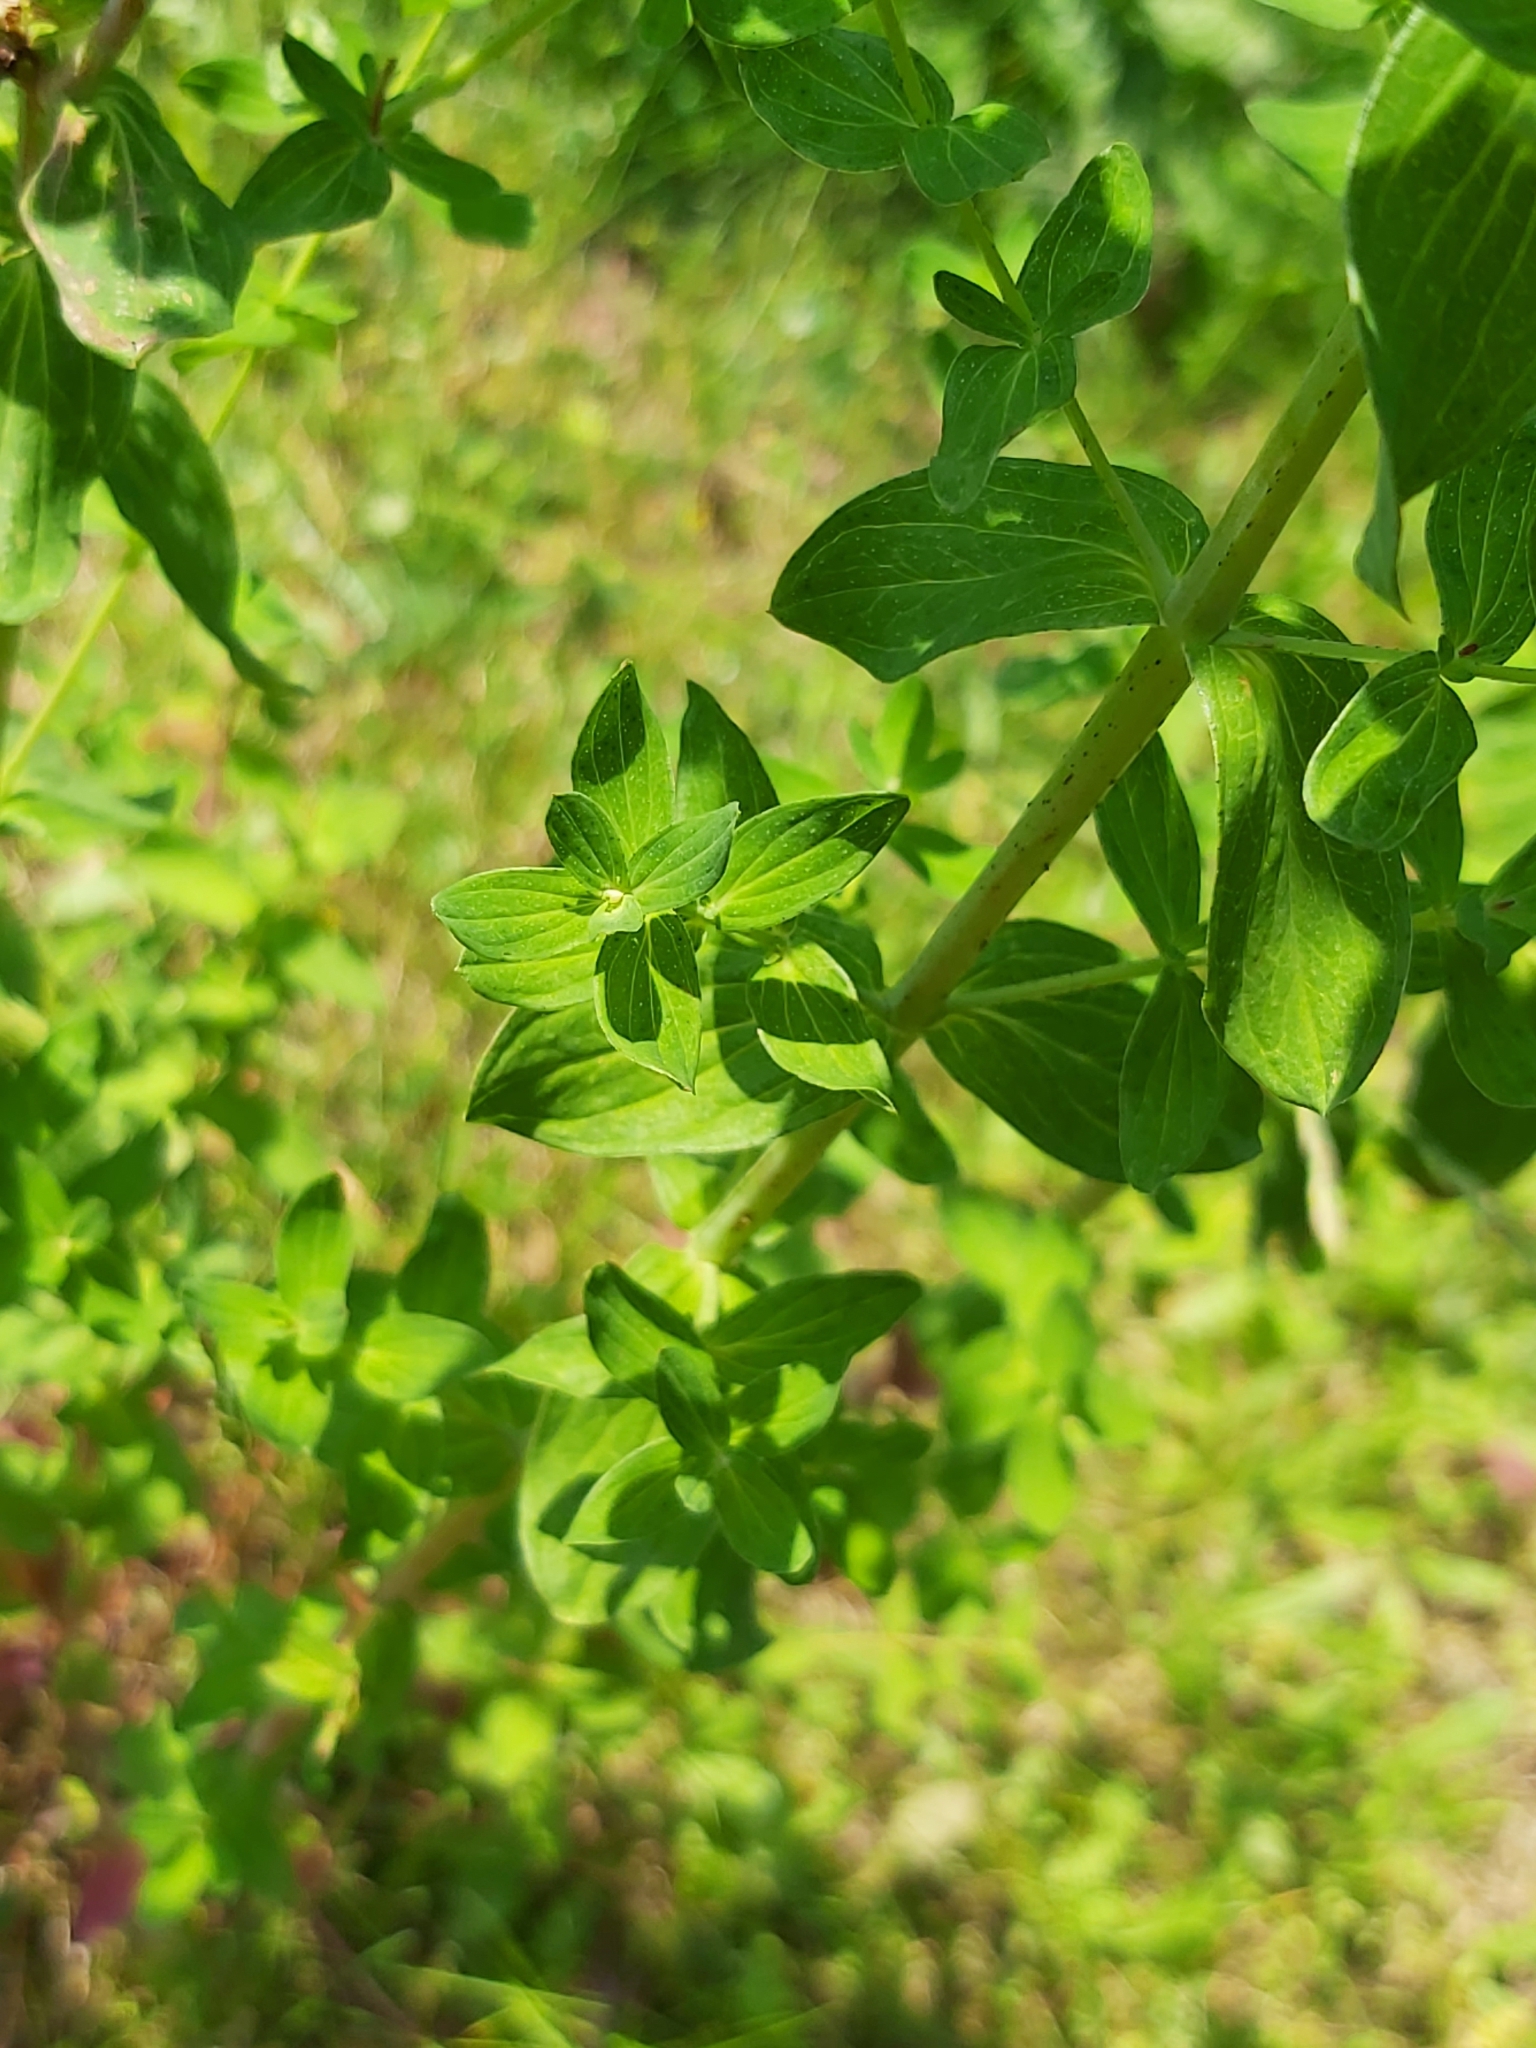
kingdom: Plantae
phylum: Tracheophyta
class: Magnoliopsida
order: Malpighiales
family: Hypericaceae
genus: Hypericum
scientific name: Hypericum perforatum
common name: Common st. johnswort
